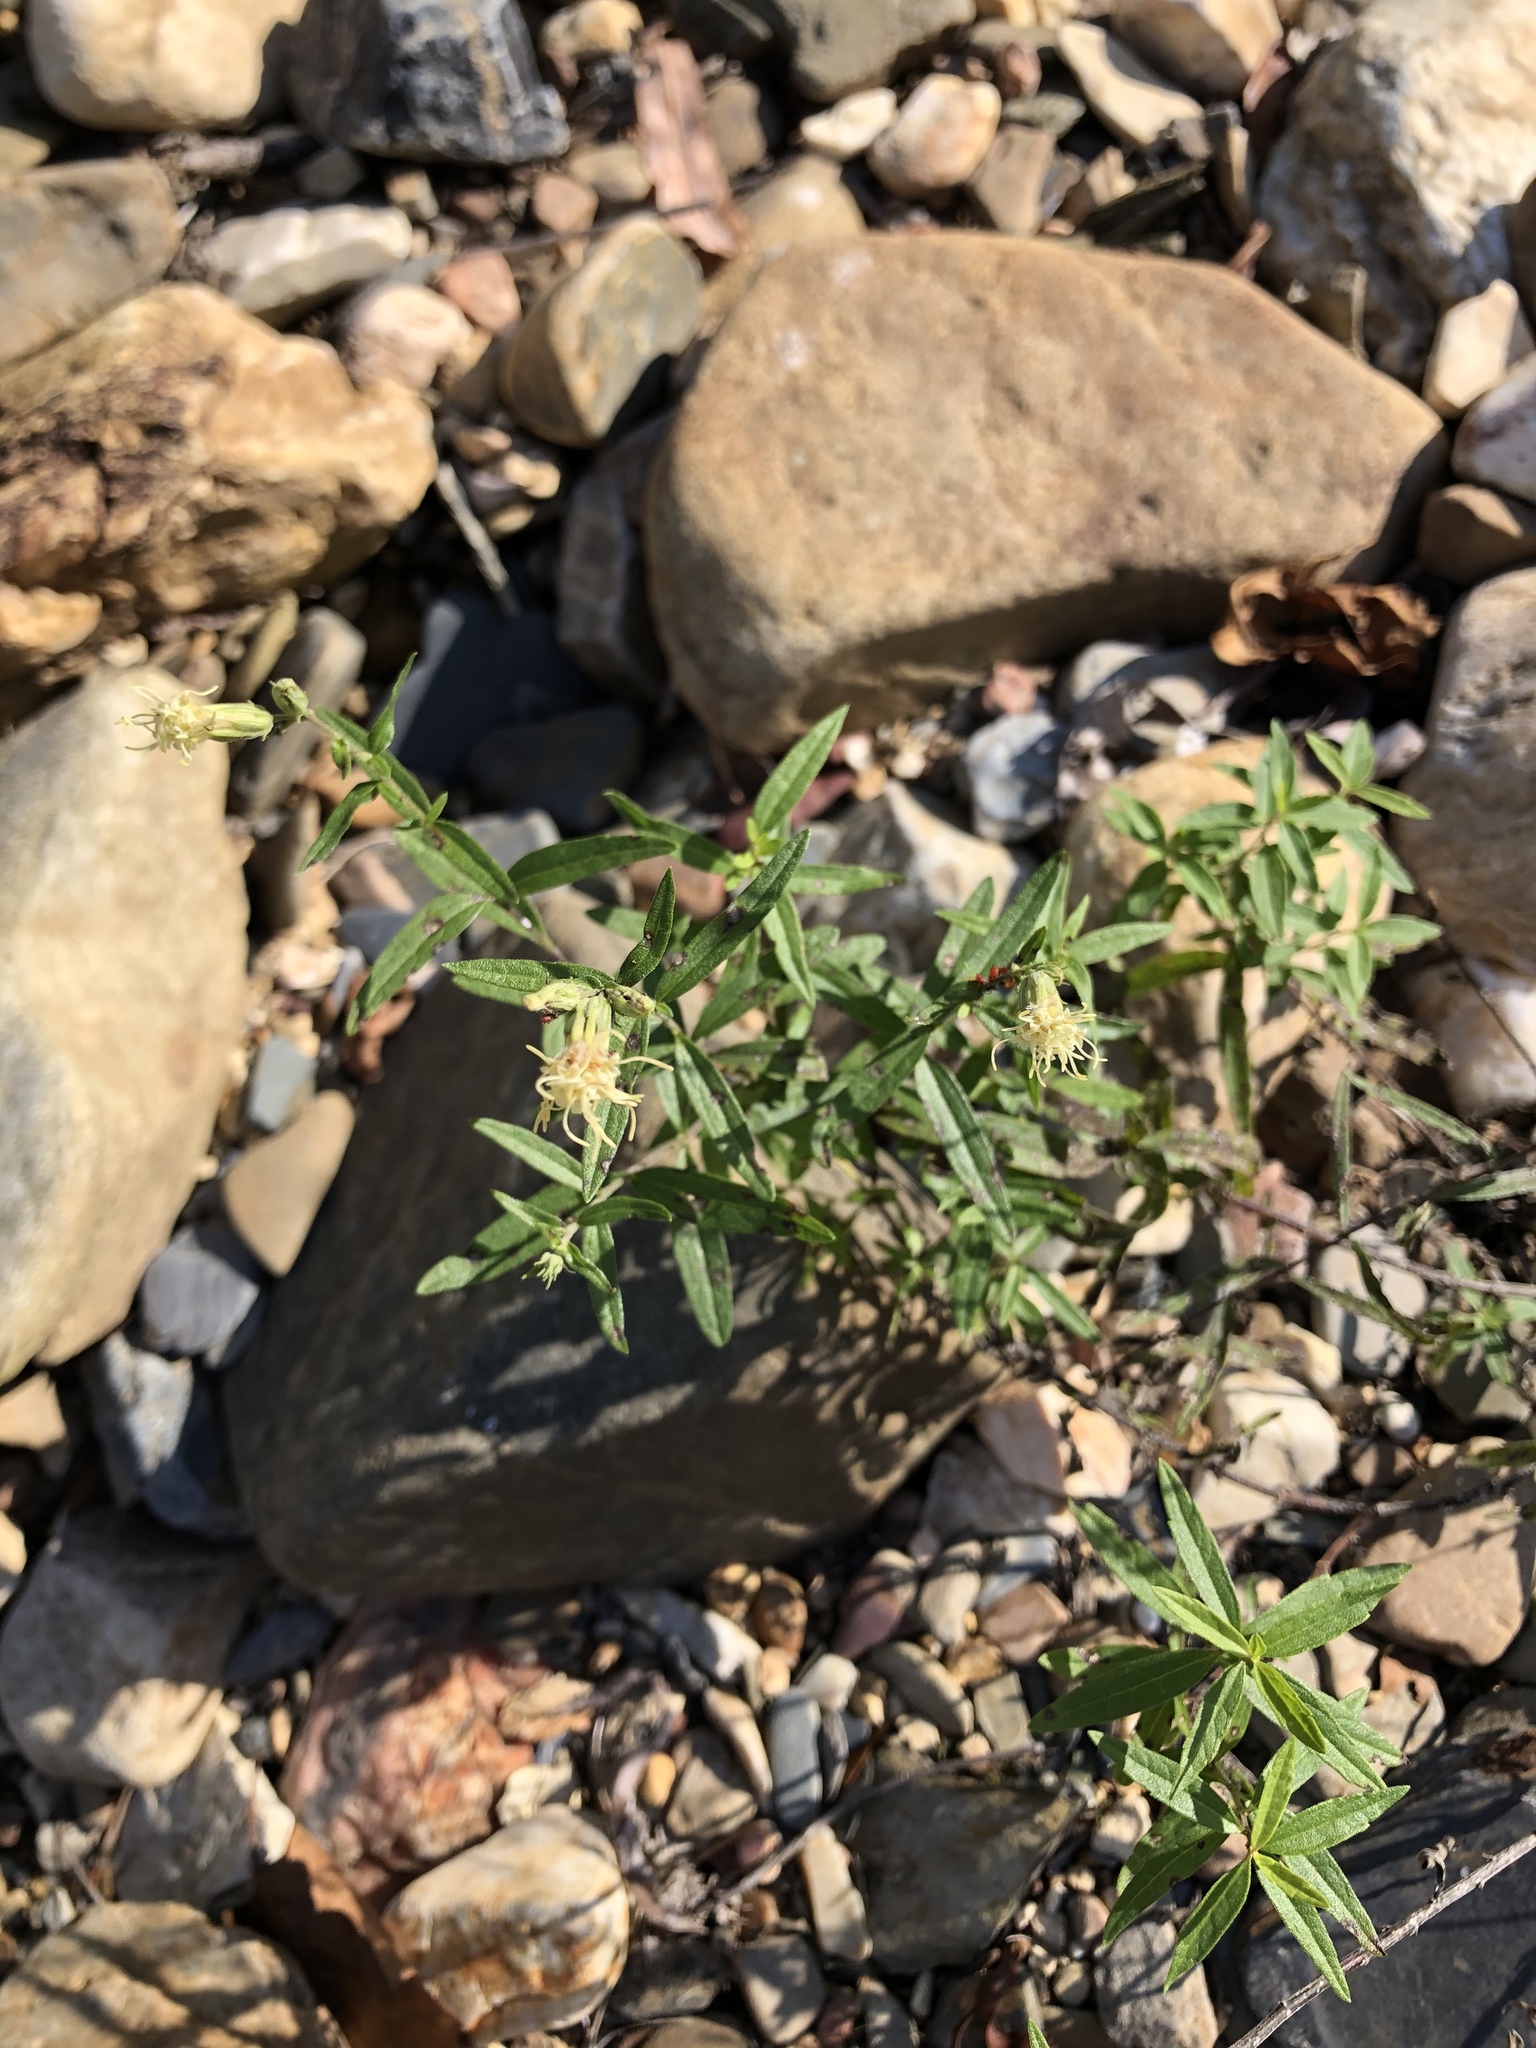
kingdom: Plantae
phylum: Tracheophyta
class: Magnoliopsida
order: Asterales
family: Asteraceae
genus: Brickellia
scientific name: Brickellia eupatorioides
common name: False boneset
